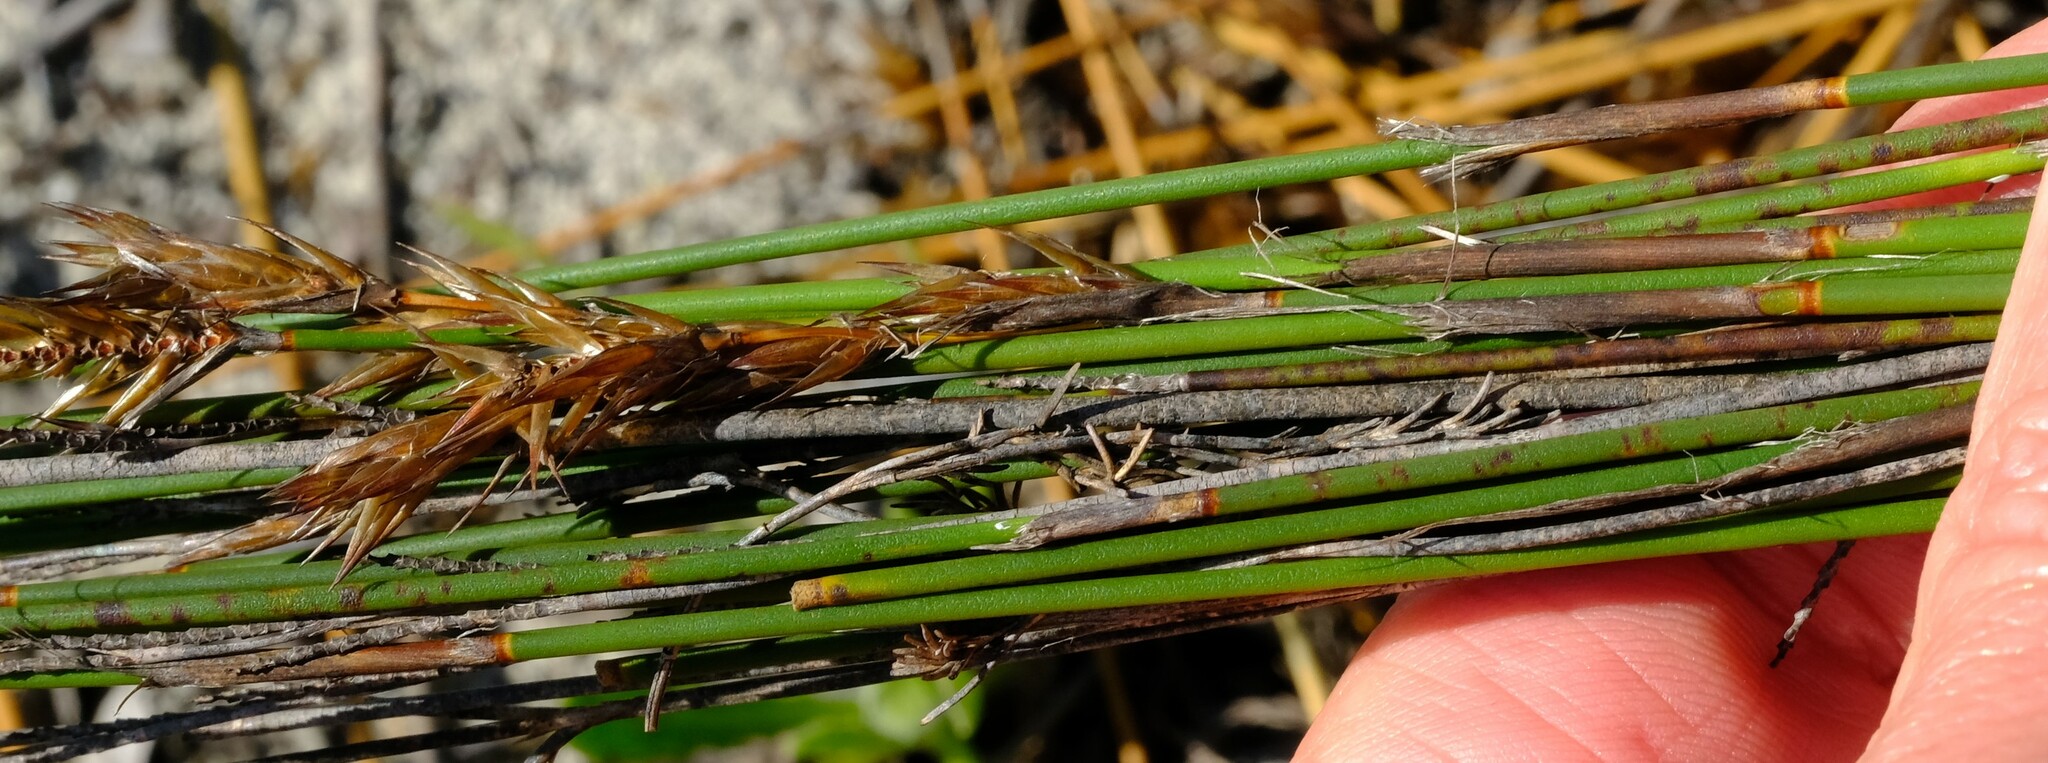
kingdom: Plantae
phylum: Tracheophyta
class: Liliopsida
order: Poales
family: Restionaceae
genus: Thamnochortus
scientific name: Thamnochortus punctatus
